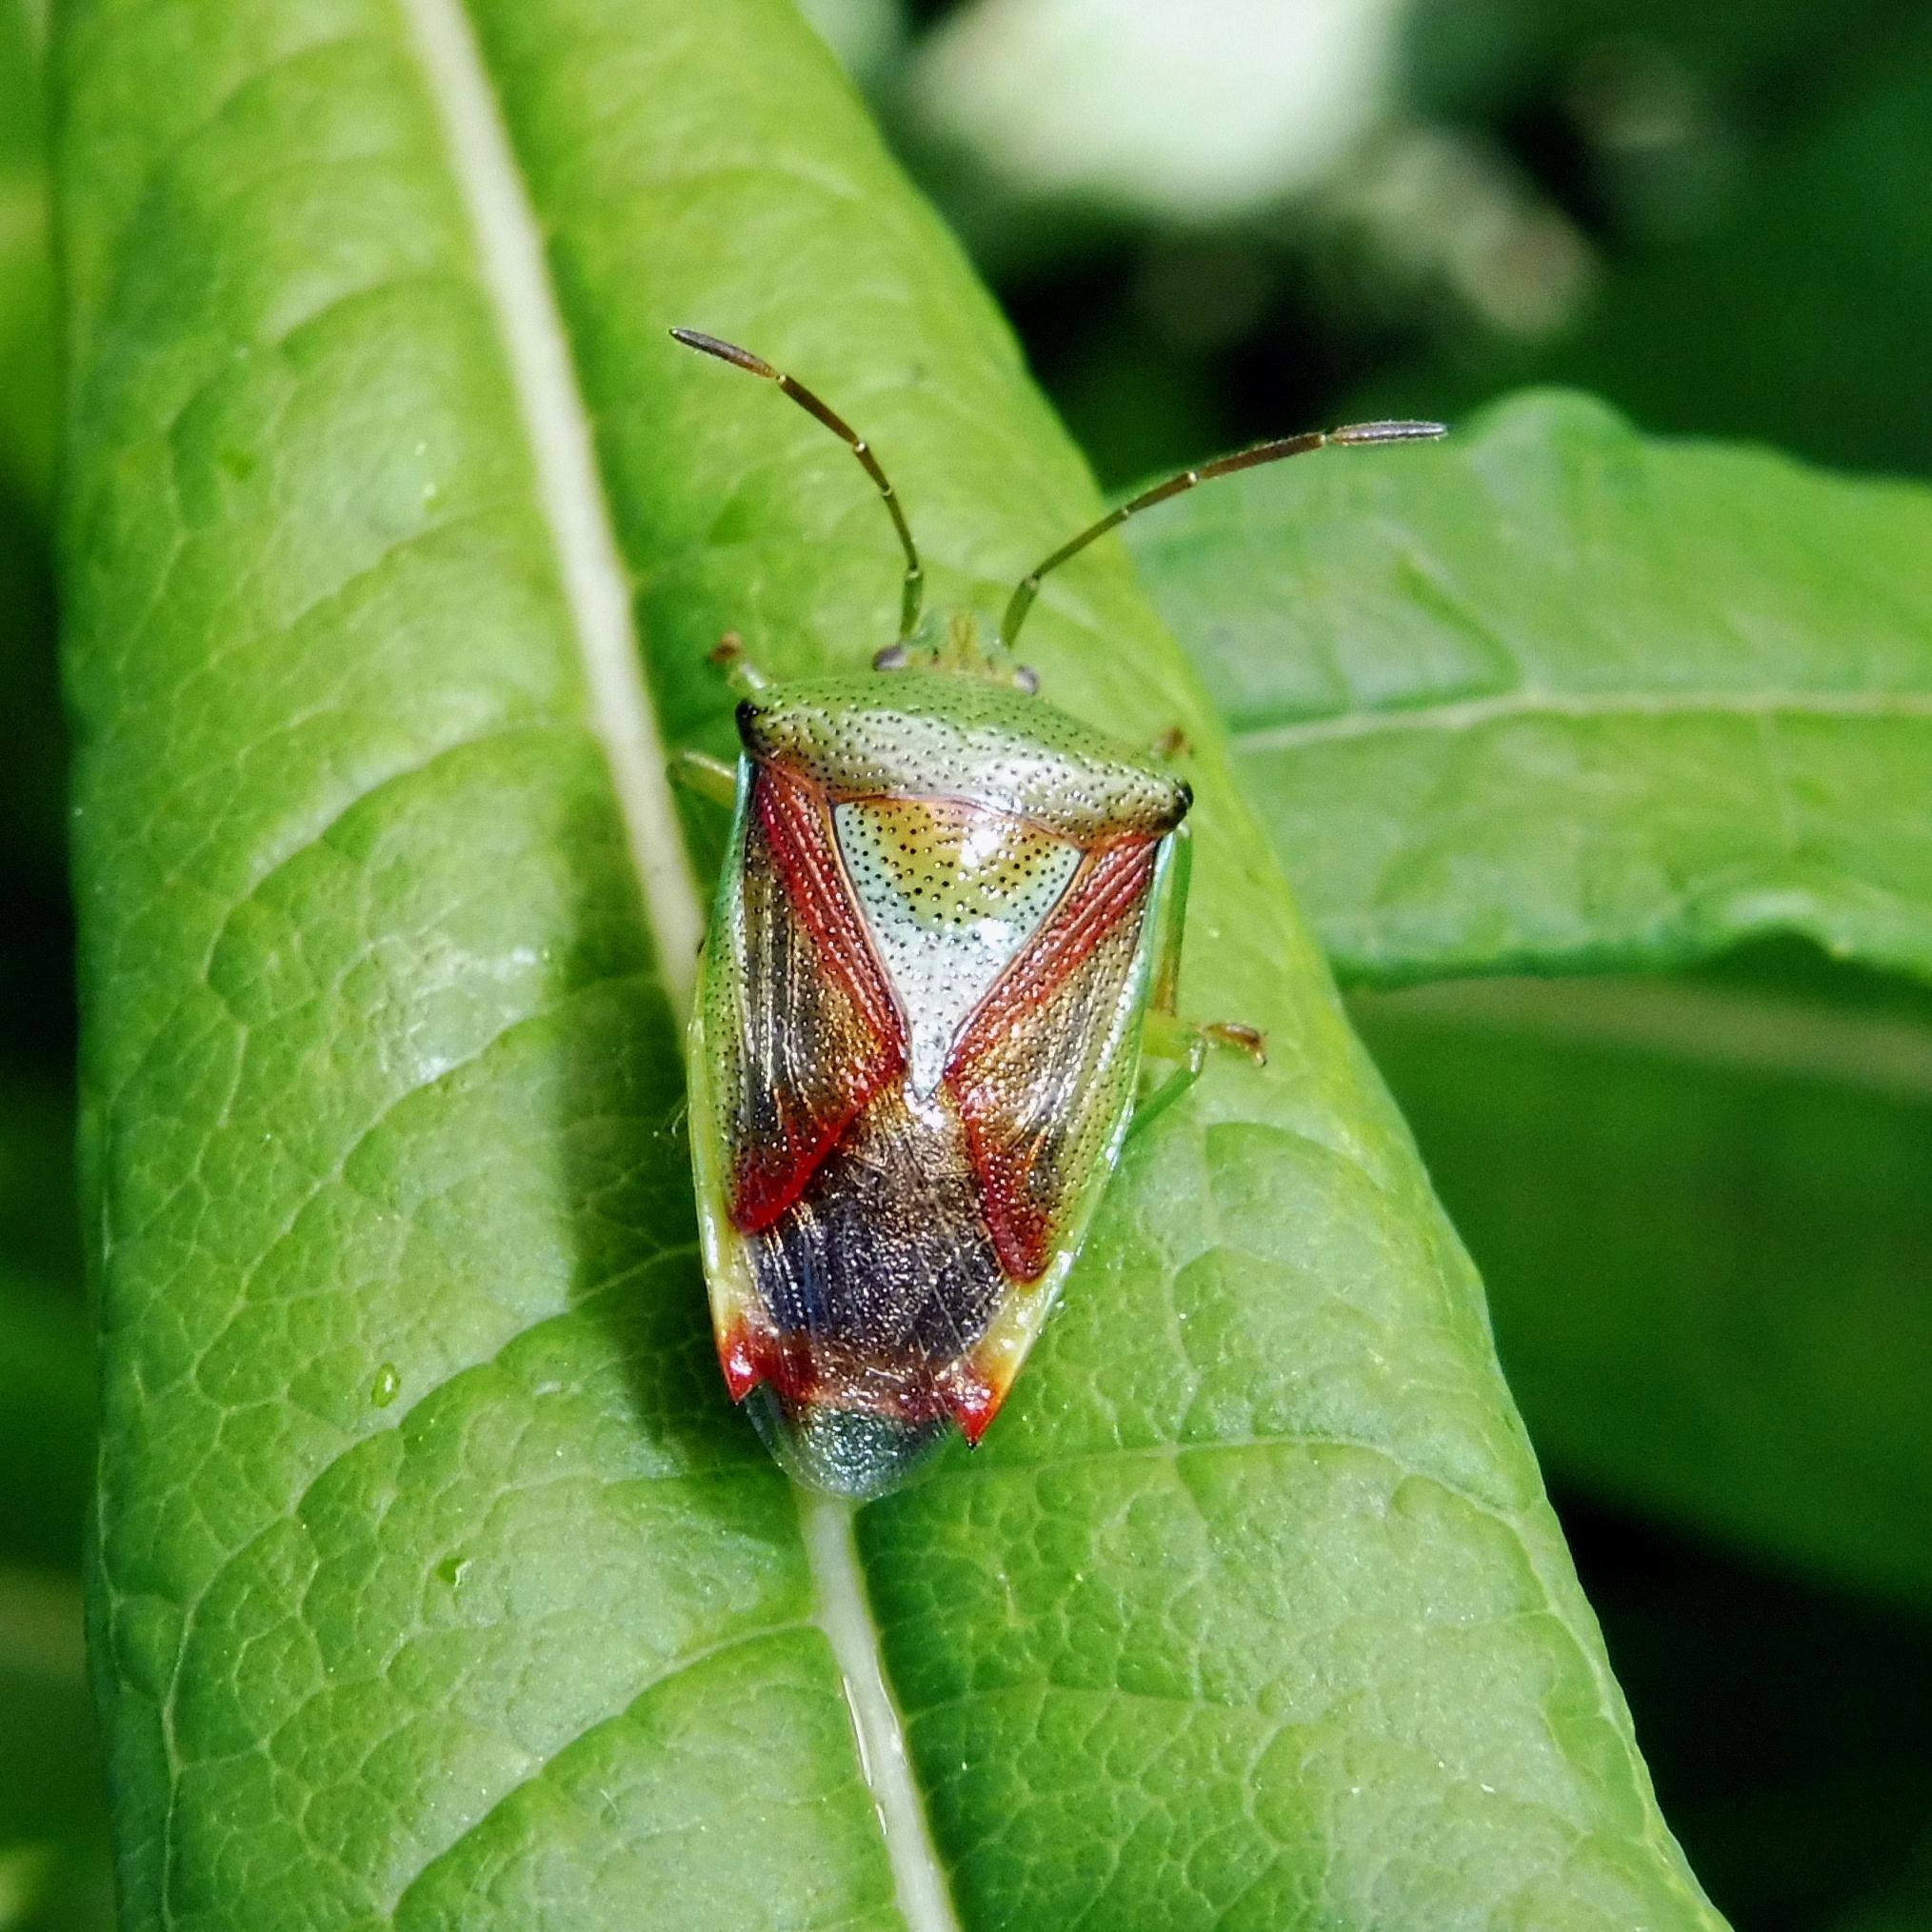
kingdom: Animalia
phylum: Arthropoda
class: Insecta
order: Hemiptera
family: Acanthosomatidae
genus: Elasmostethus
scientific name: Elasmostethus interstinctus
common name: Birch shieldbug
